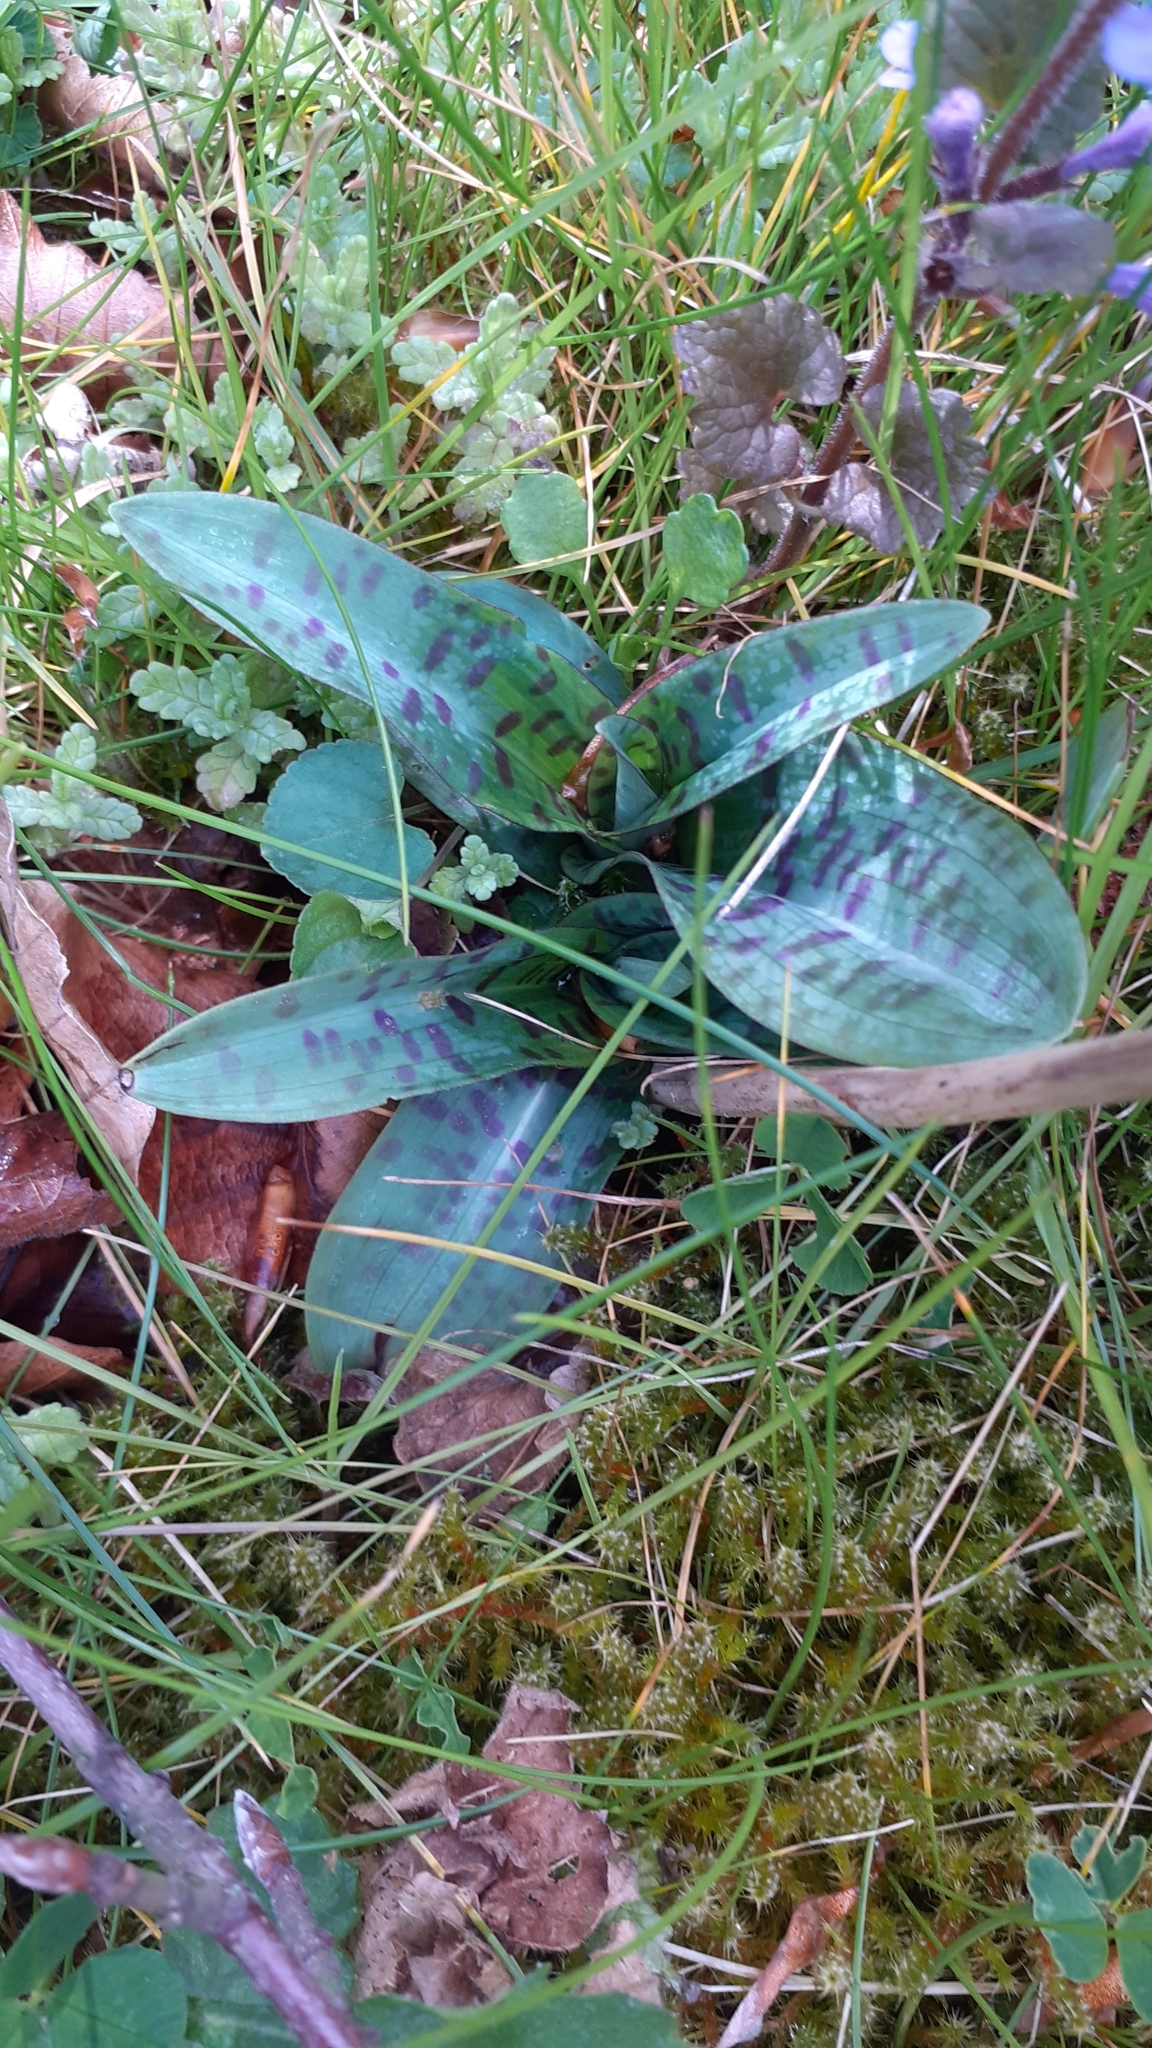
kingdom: Plantae
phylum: Tracheophyta
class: Liliopsida
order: Asparagales
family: Orchidaceae
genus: Dactylorhiza
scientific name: Dactylorhiza maculata
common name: Heath spotted-orchid
